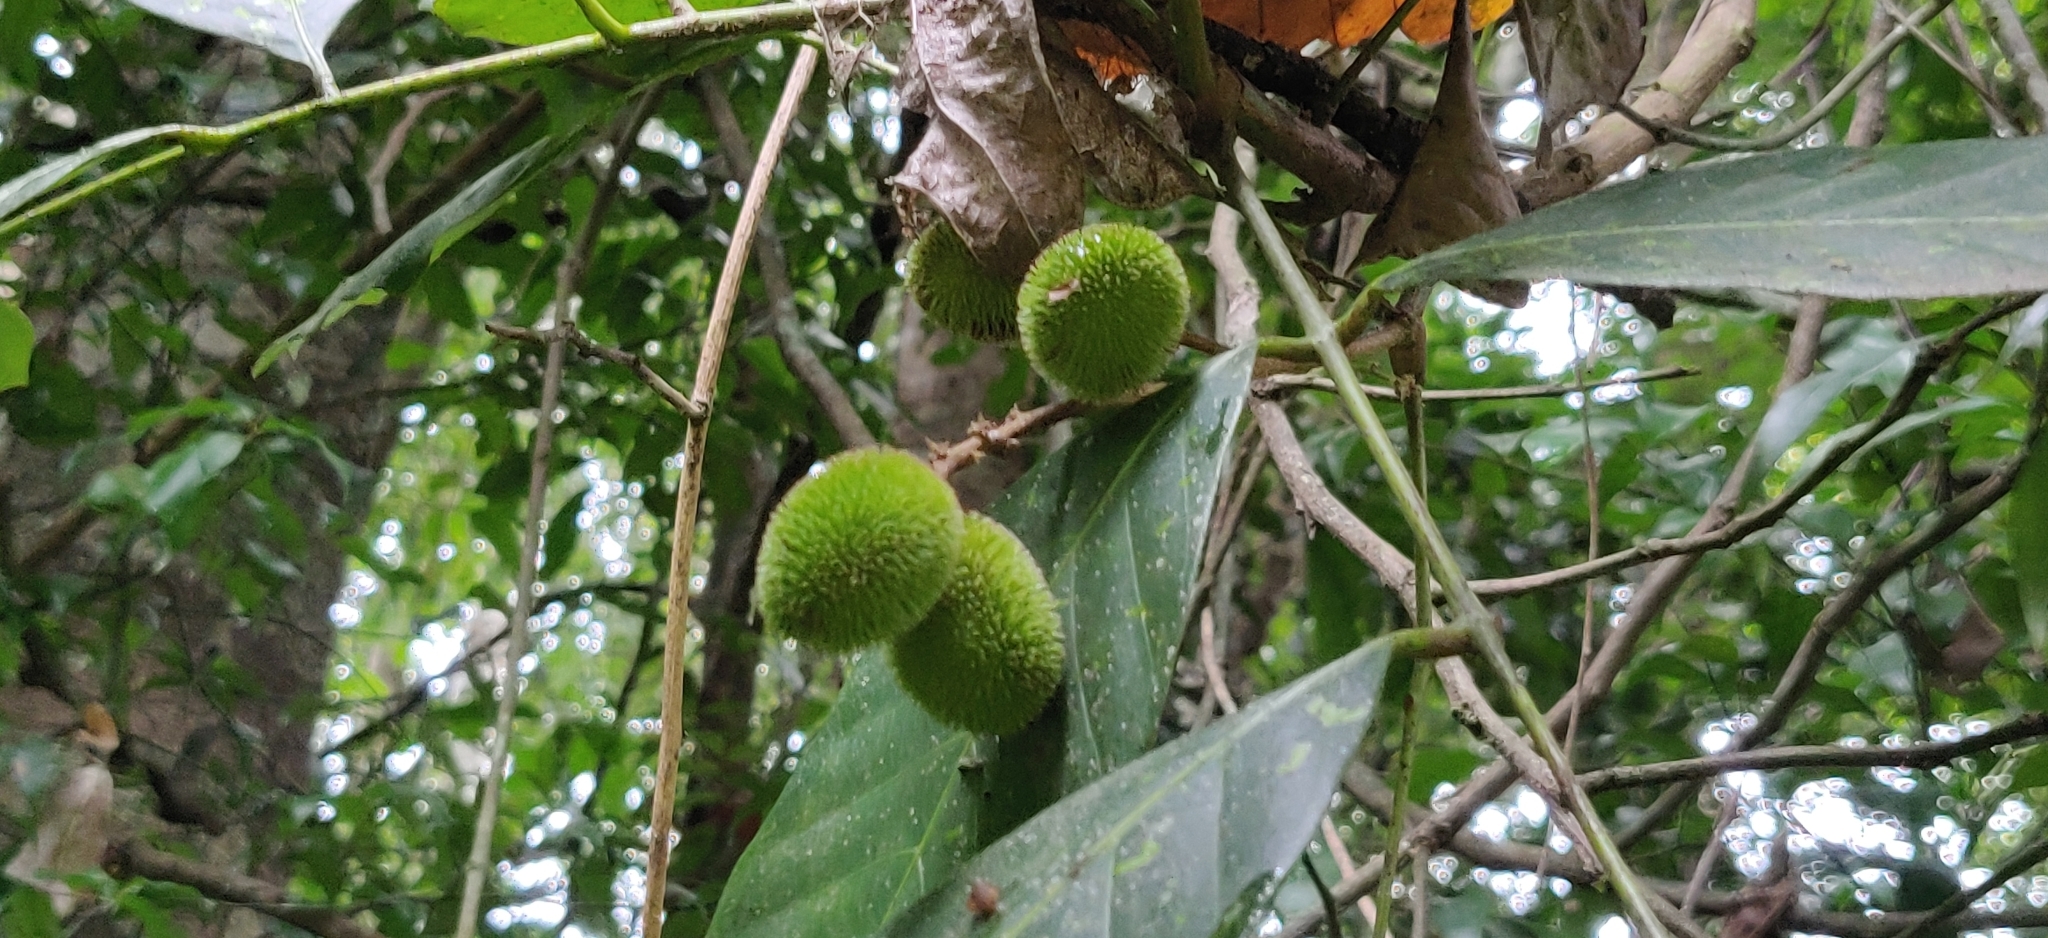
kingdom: Plantae
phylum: Tracheophyta
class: Magnoliopsida
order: Sapindales
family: Sapindaceae
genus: Otonephelium
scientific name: Otonephelium stipulaceum
